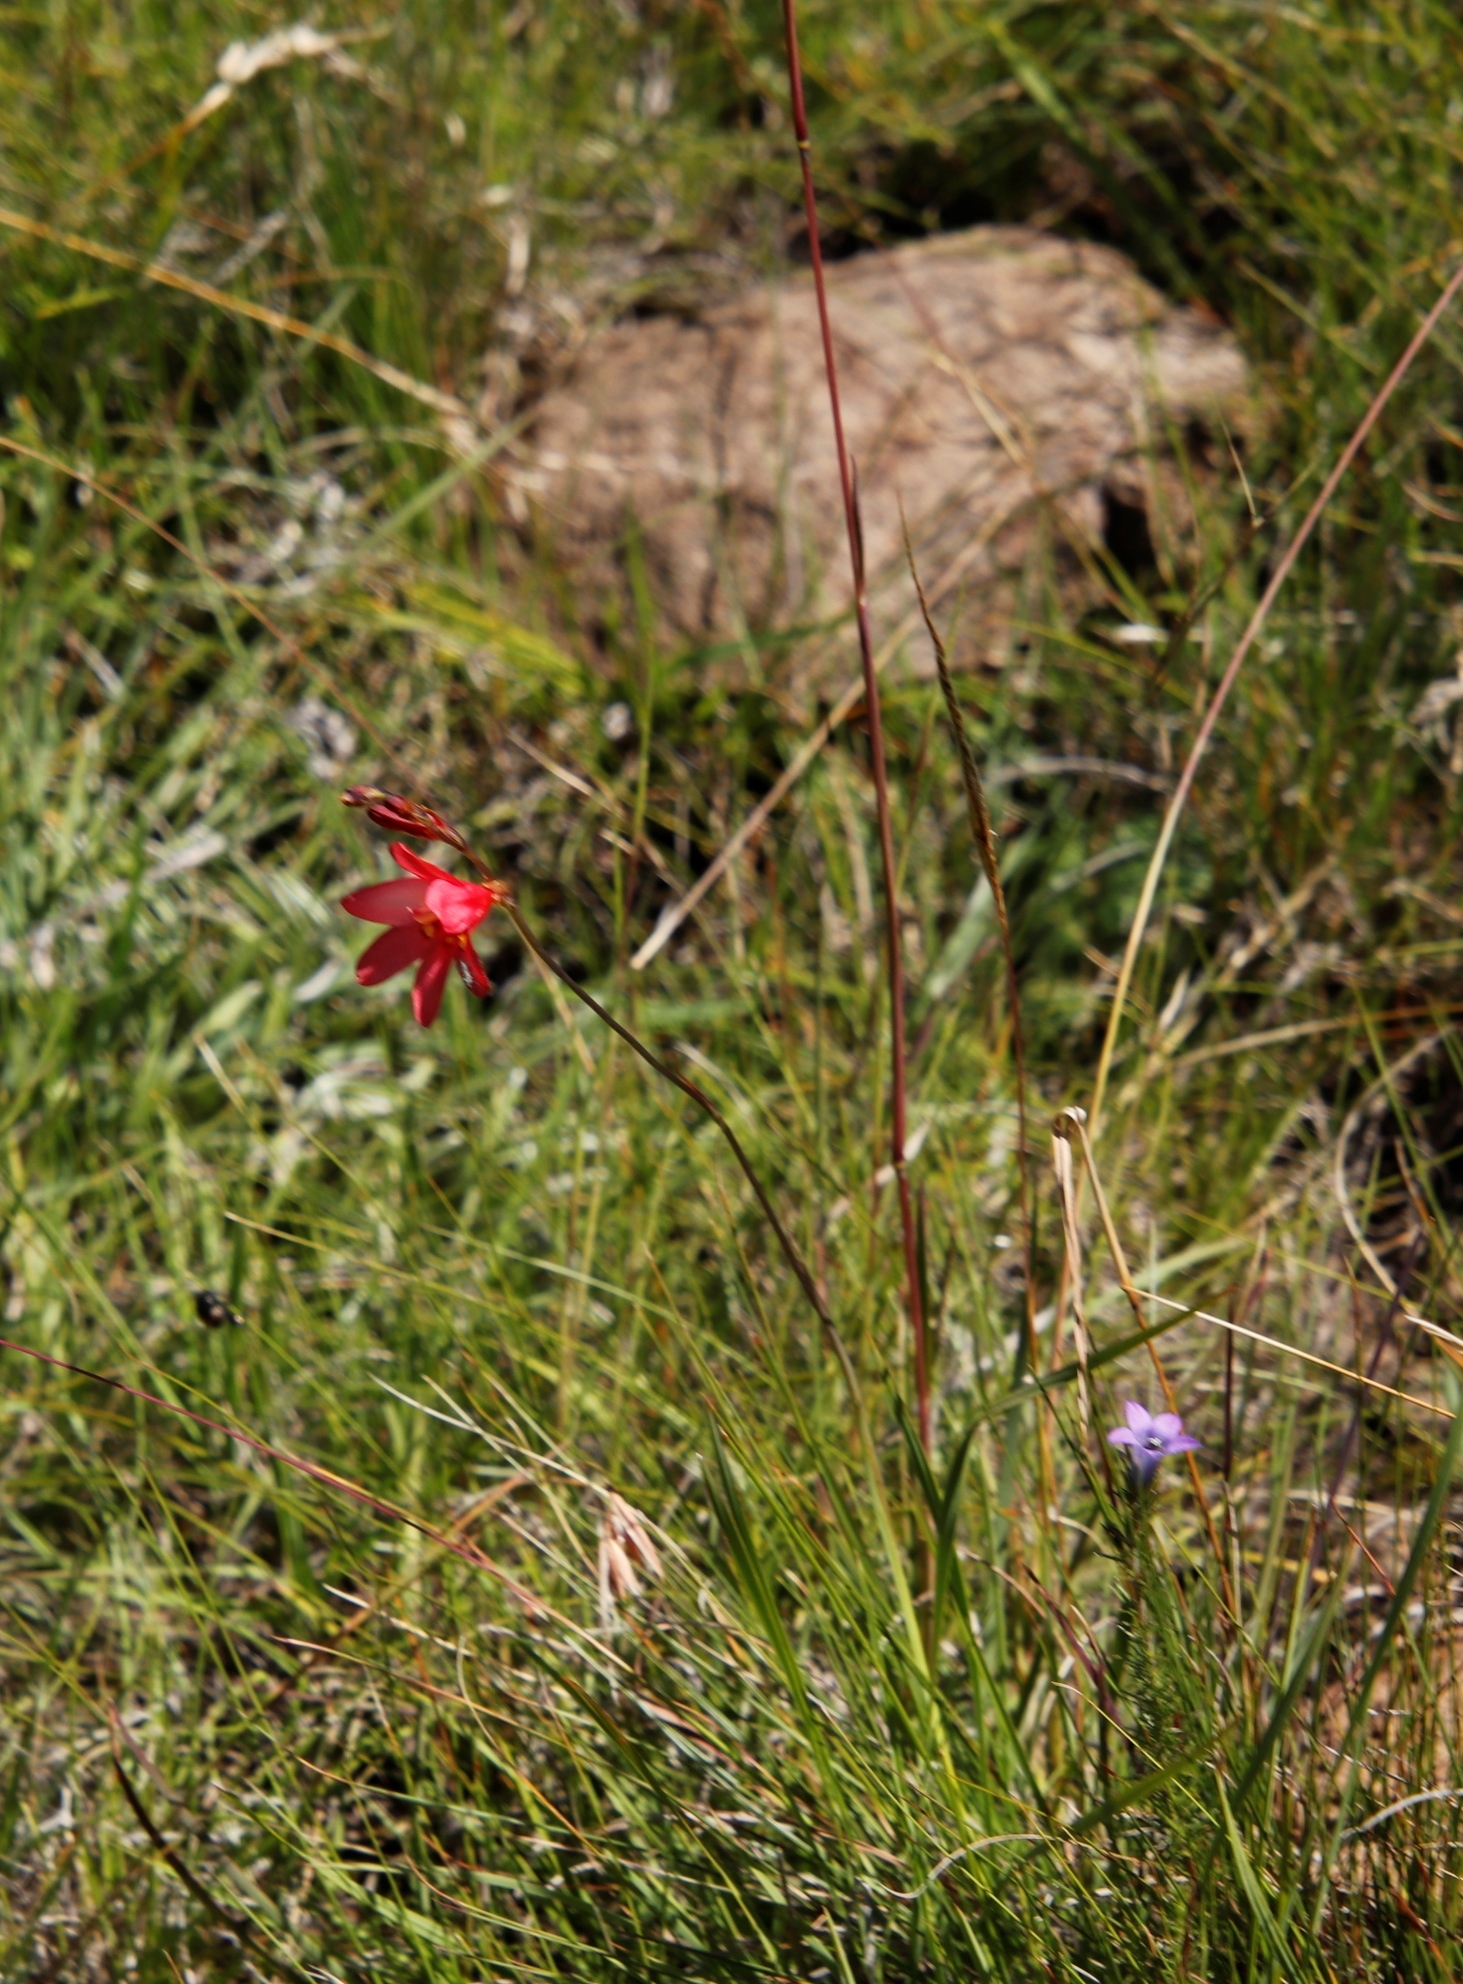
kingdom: Plantae
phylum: Tracheophyta
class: Liliopsida
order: Asparagales
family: Iridaceae
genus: Tritonia
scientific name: Tritonia drakensbergensis
